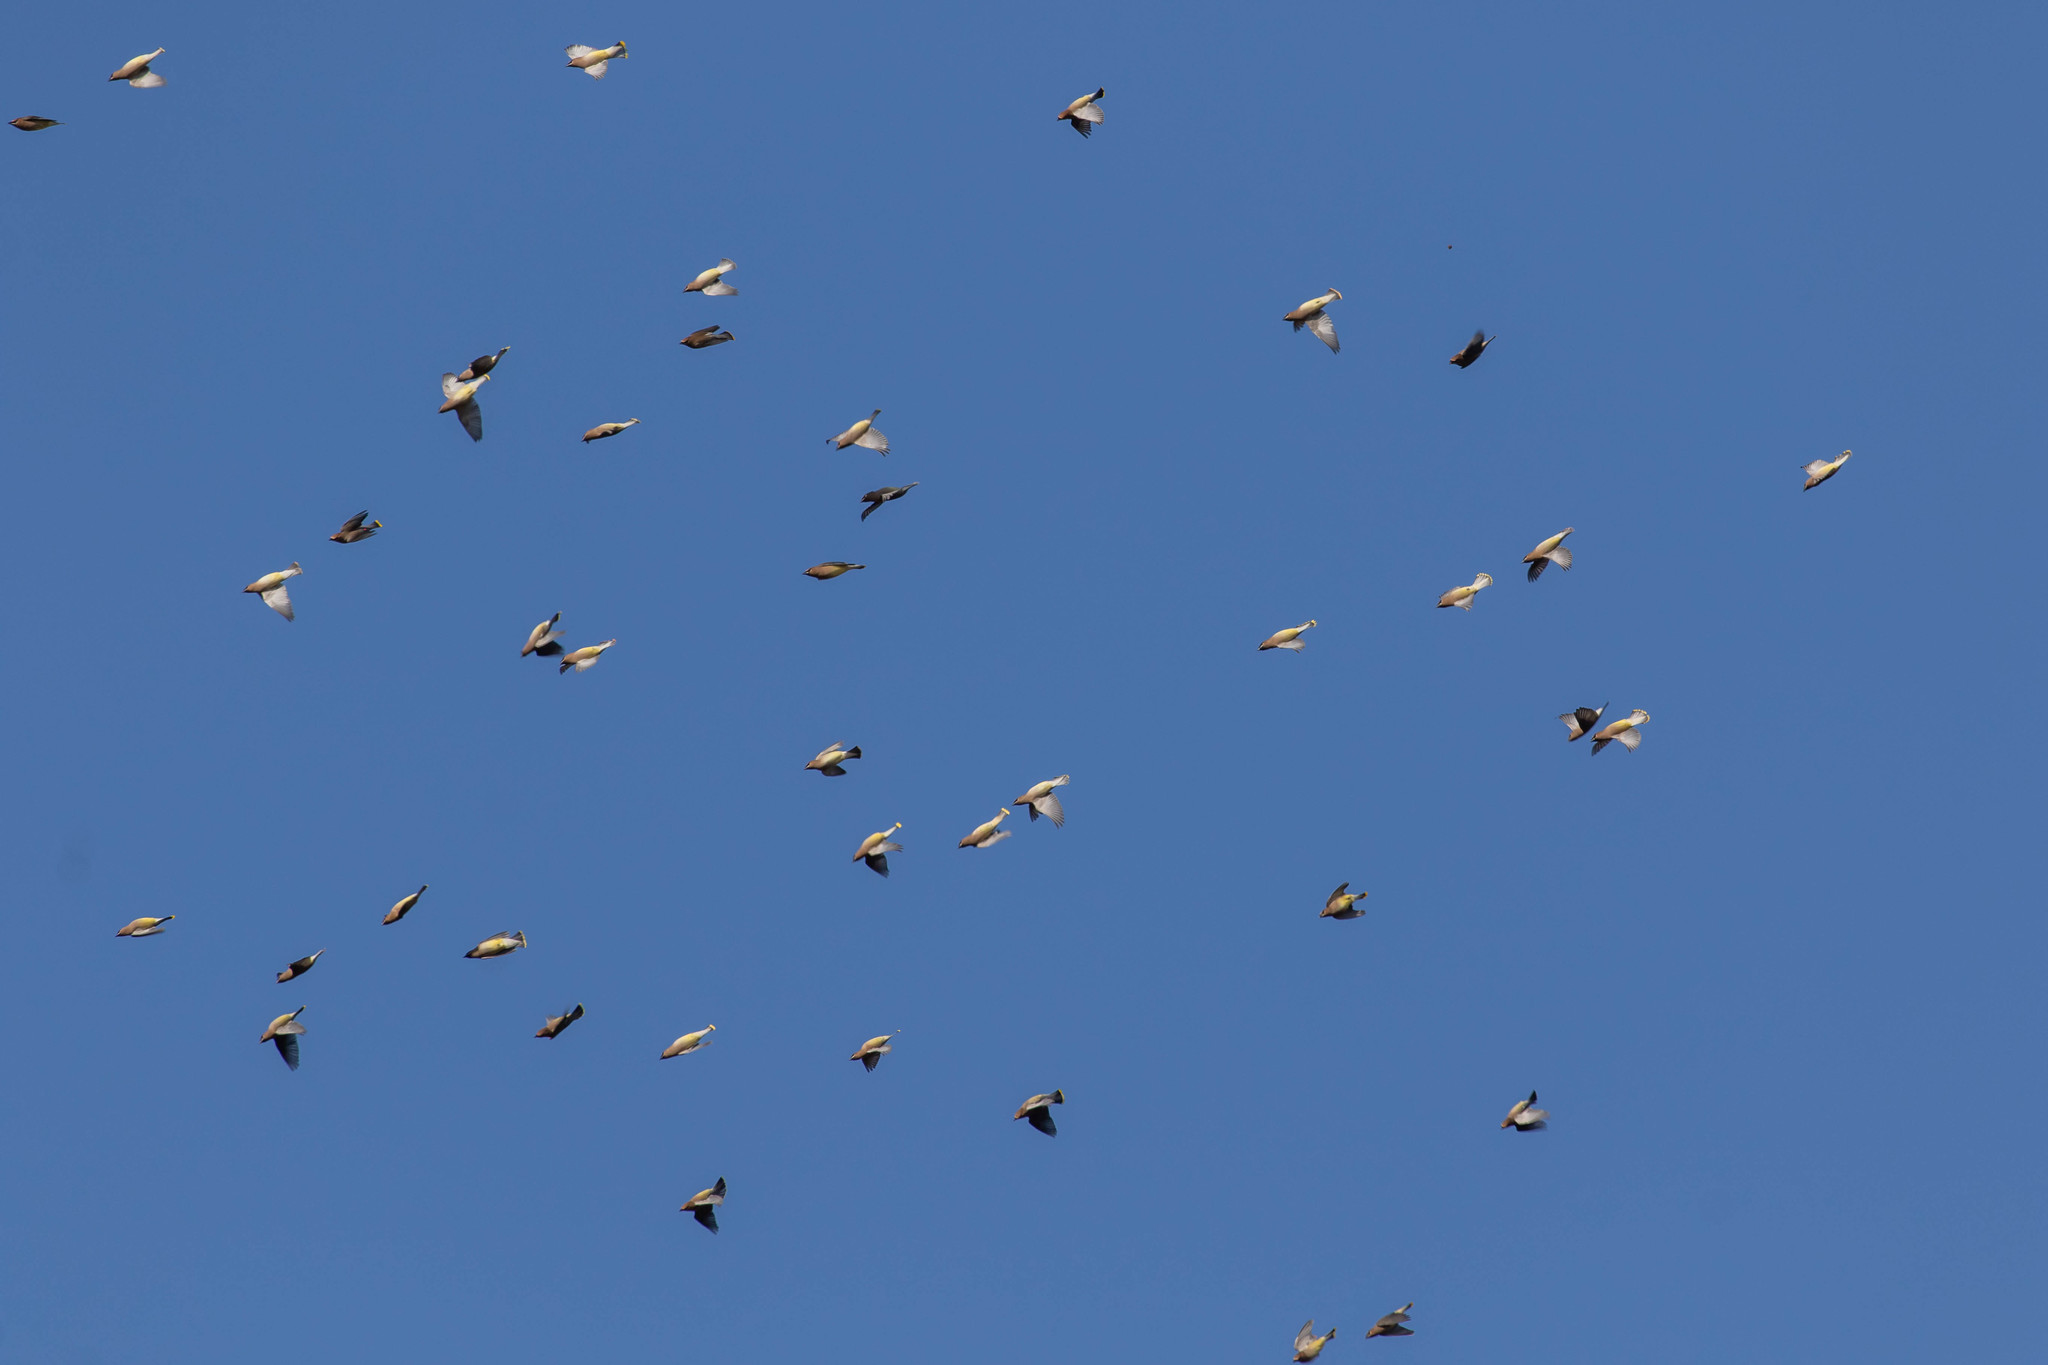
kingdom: Animalia
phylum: Chordata
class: Aves
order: Passeriformes
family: Bombycillidae
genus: Bombycilla
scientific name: Bombycilla cedrorum
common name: Cedar waxwing
